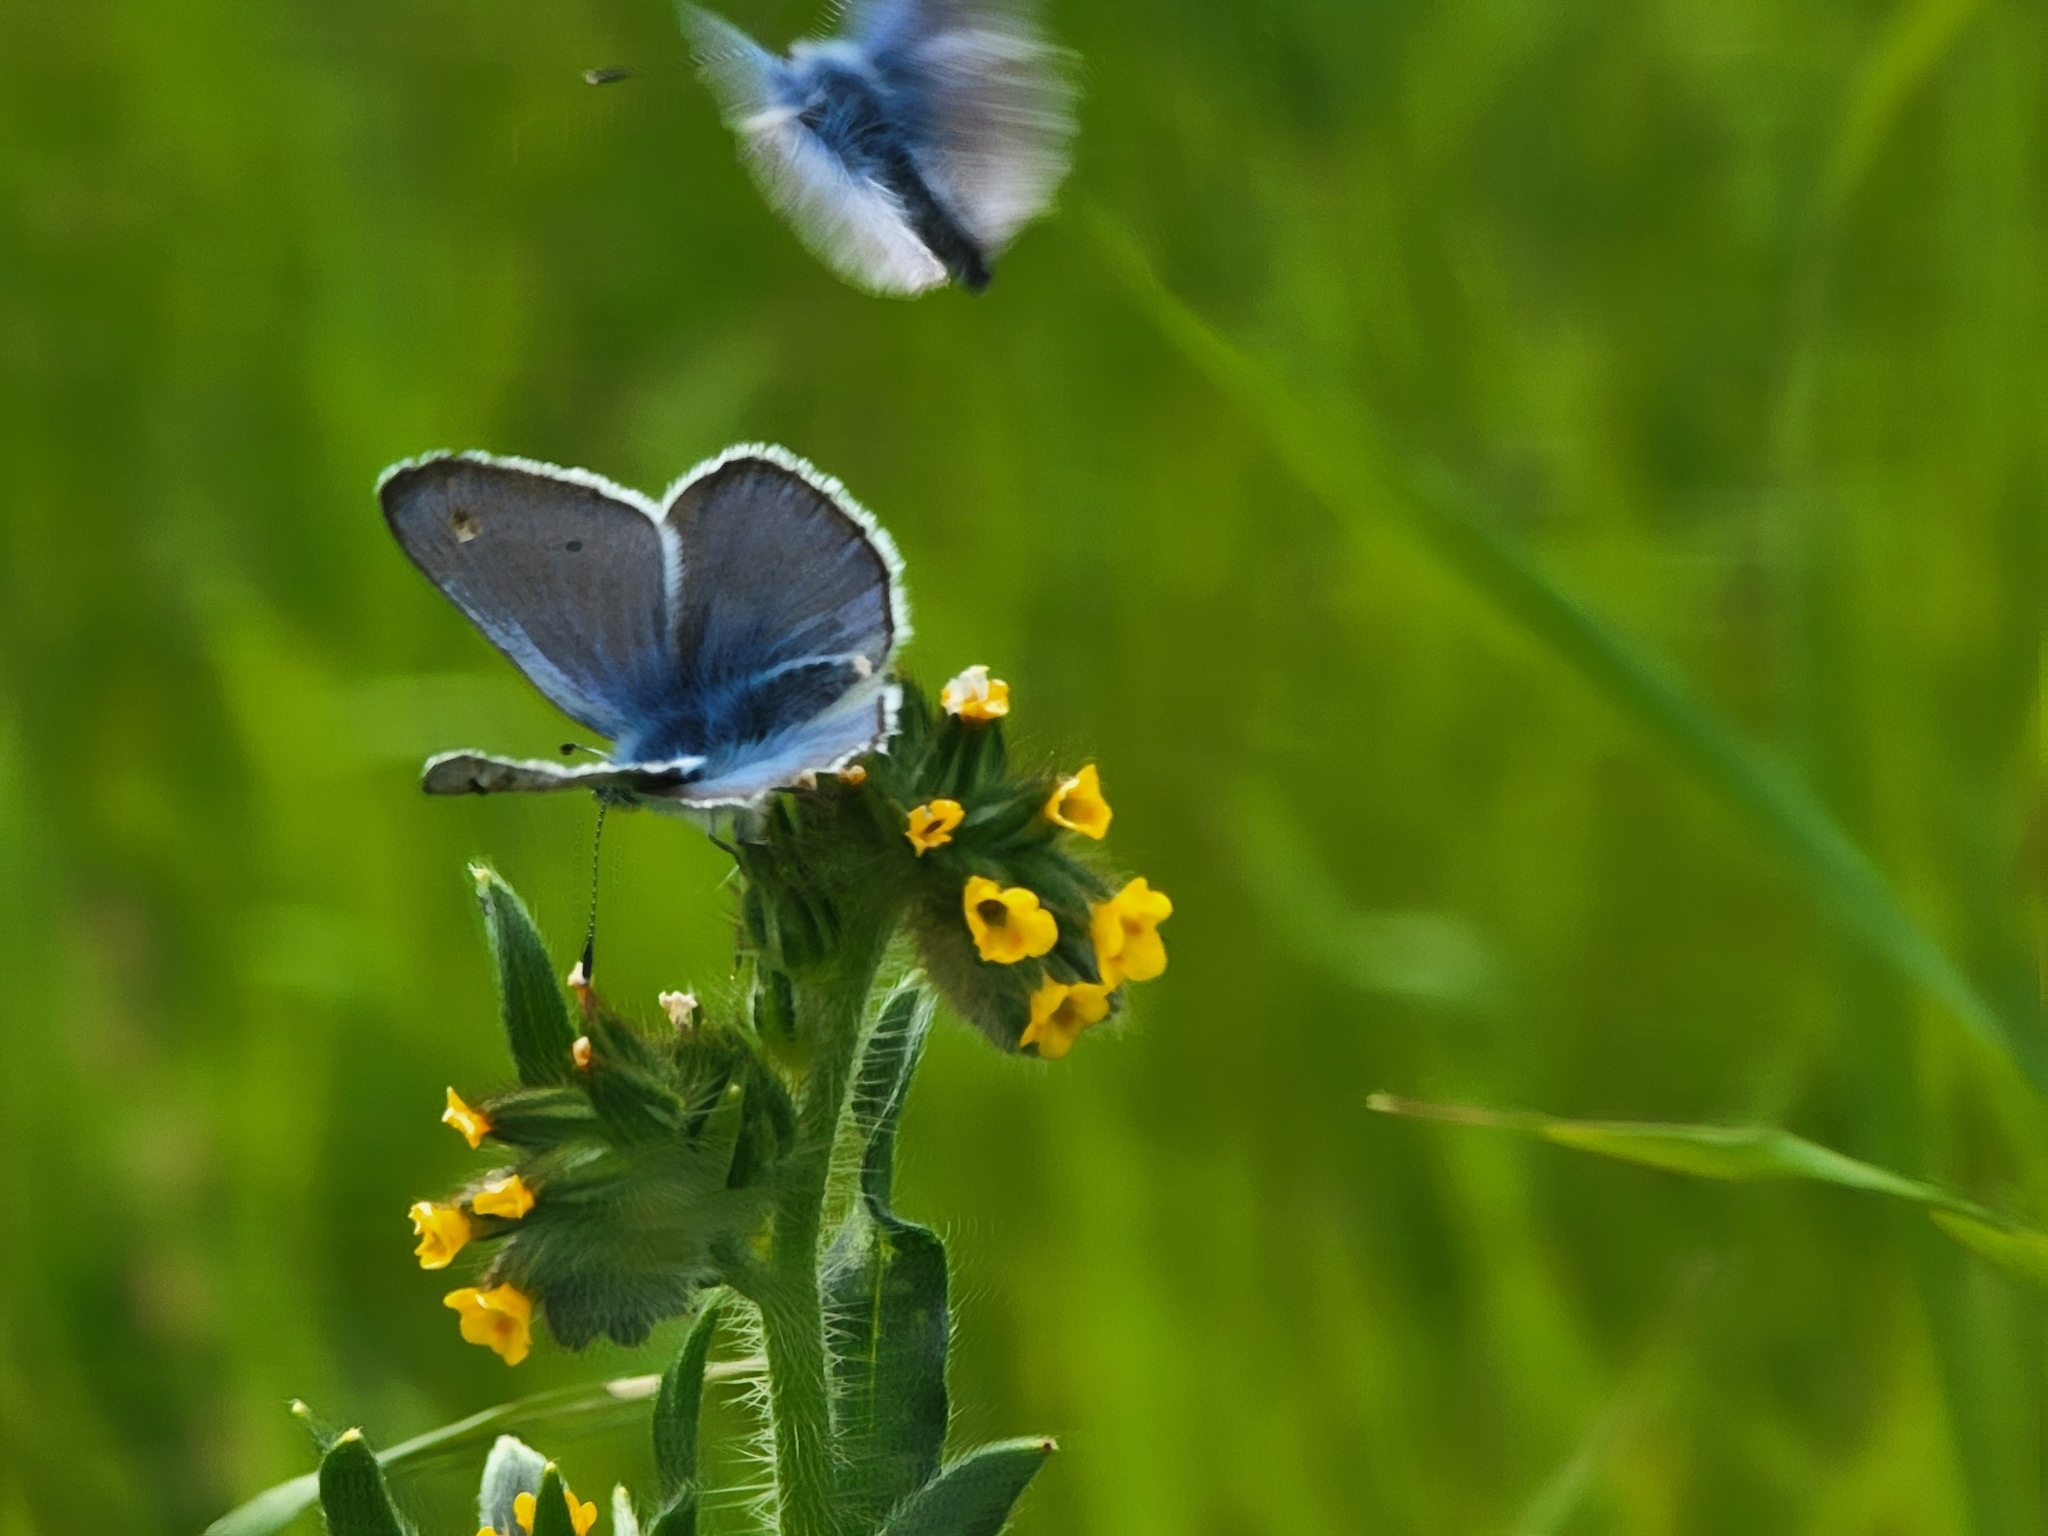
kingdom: Animalia
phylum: Arthropoda
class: Insecta
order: Lepidoptera
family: Lycaenidae
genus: Glaucopsyche
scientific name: Glaucopsyche lygdamus
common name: Silvery blue
